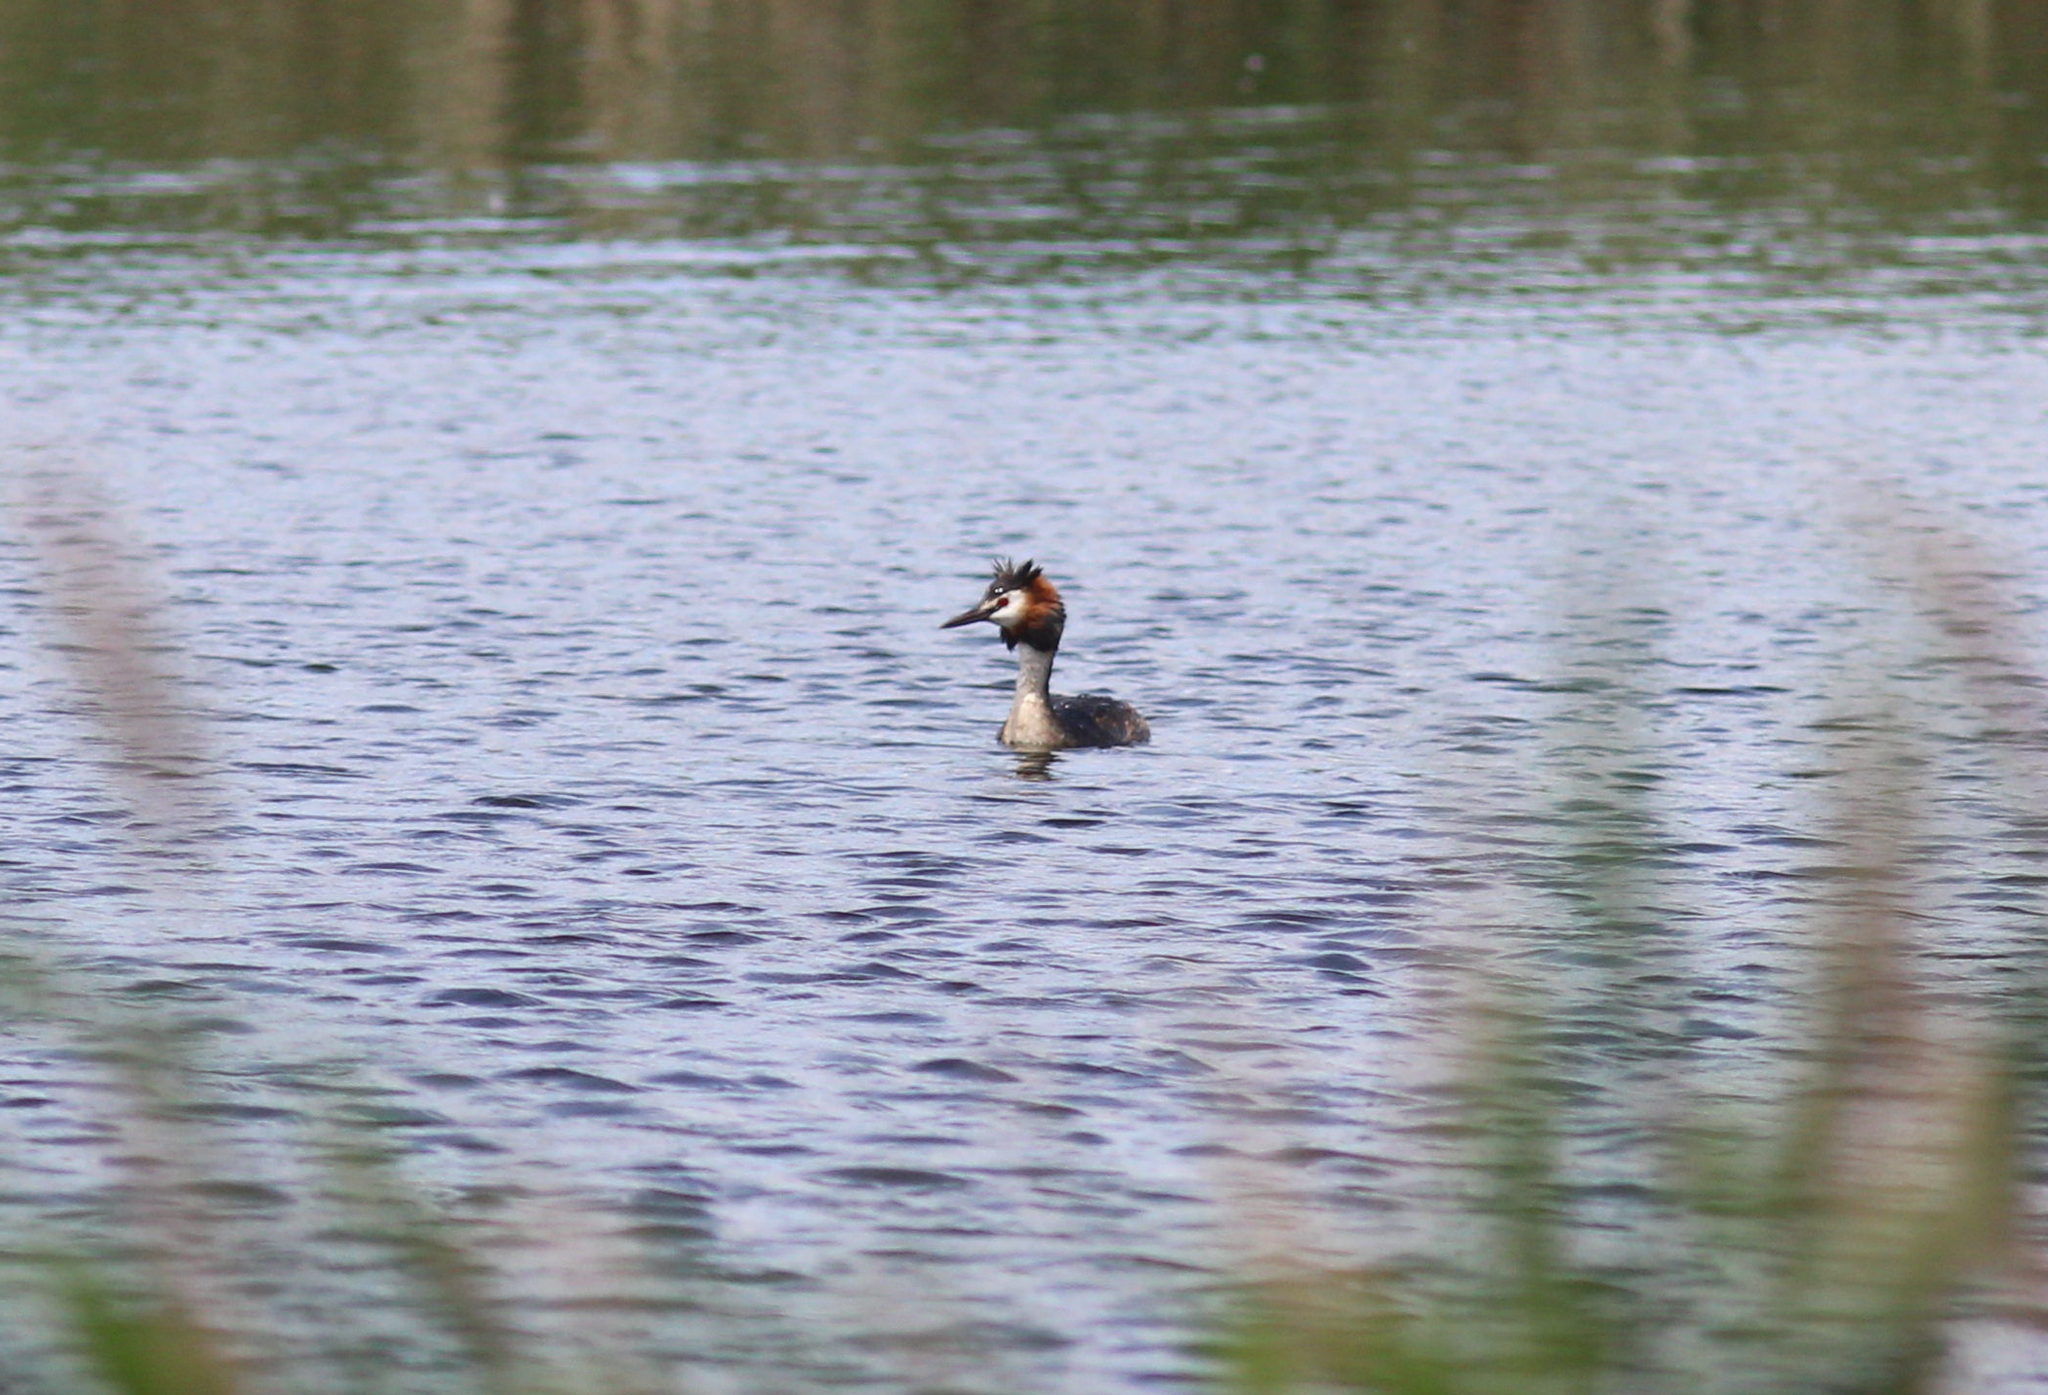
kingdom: Animalia
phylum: Chordata
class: Aves
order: Podicipediformes
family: Podicipedidae
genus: Podiceps
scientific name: Podiceps cristatus
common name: Great crested grebe
